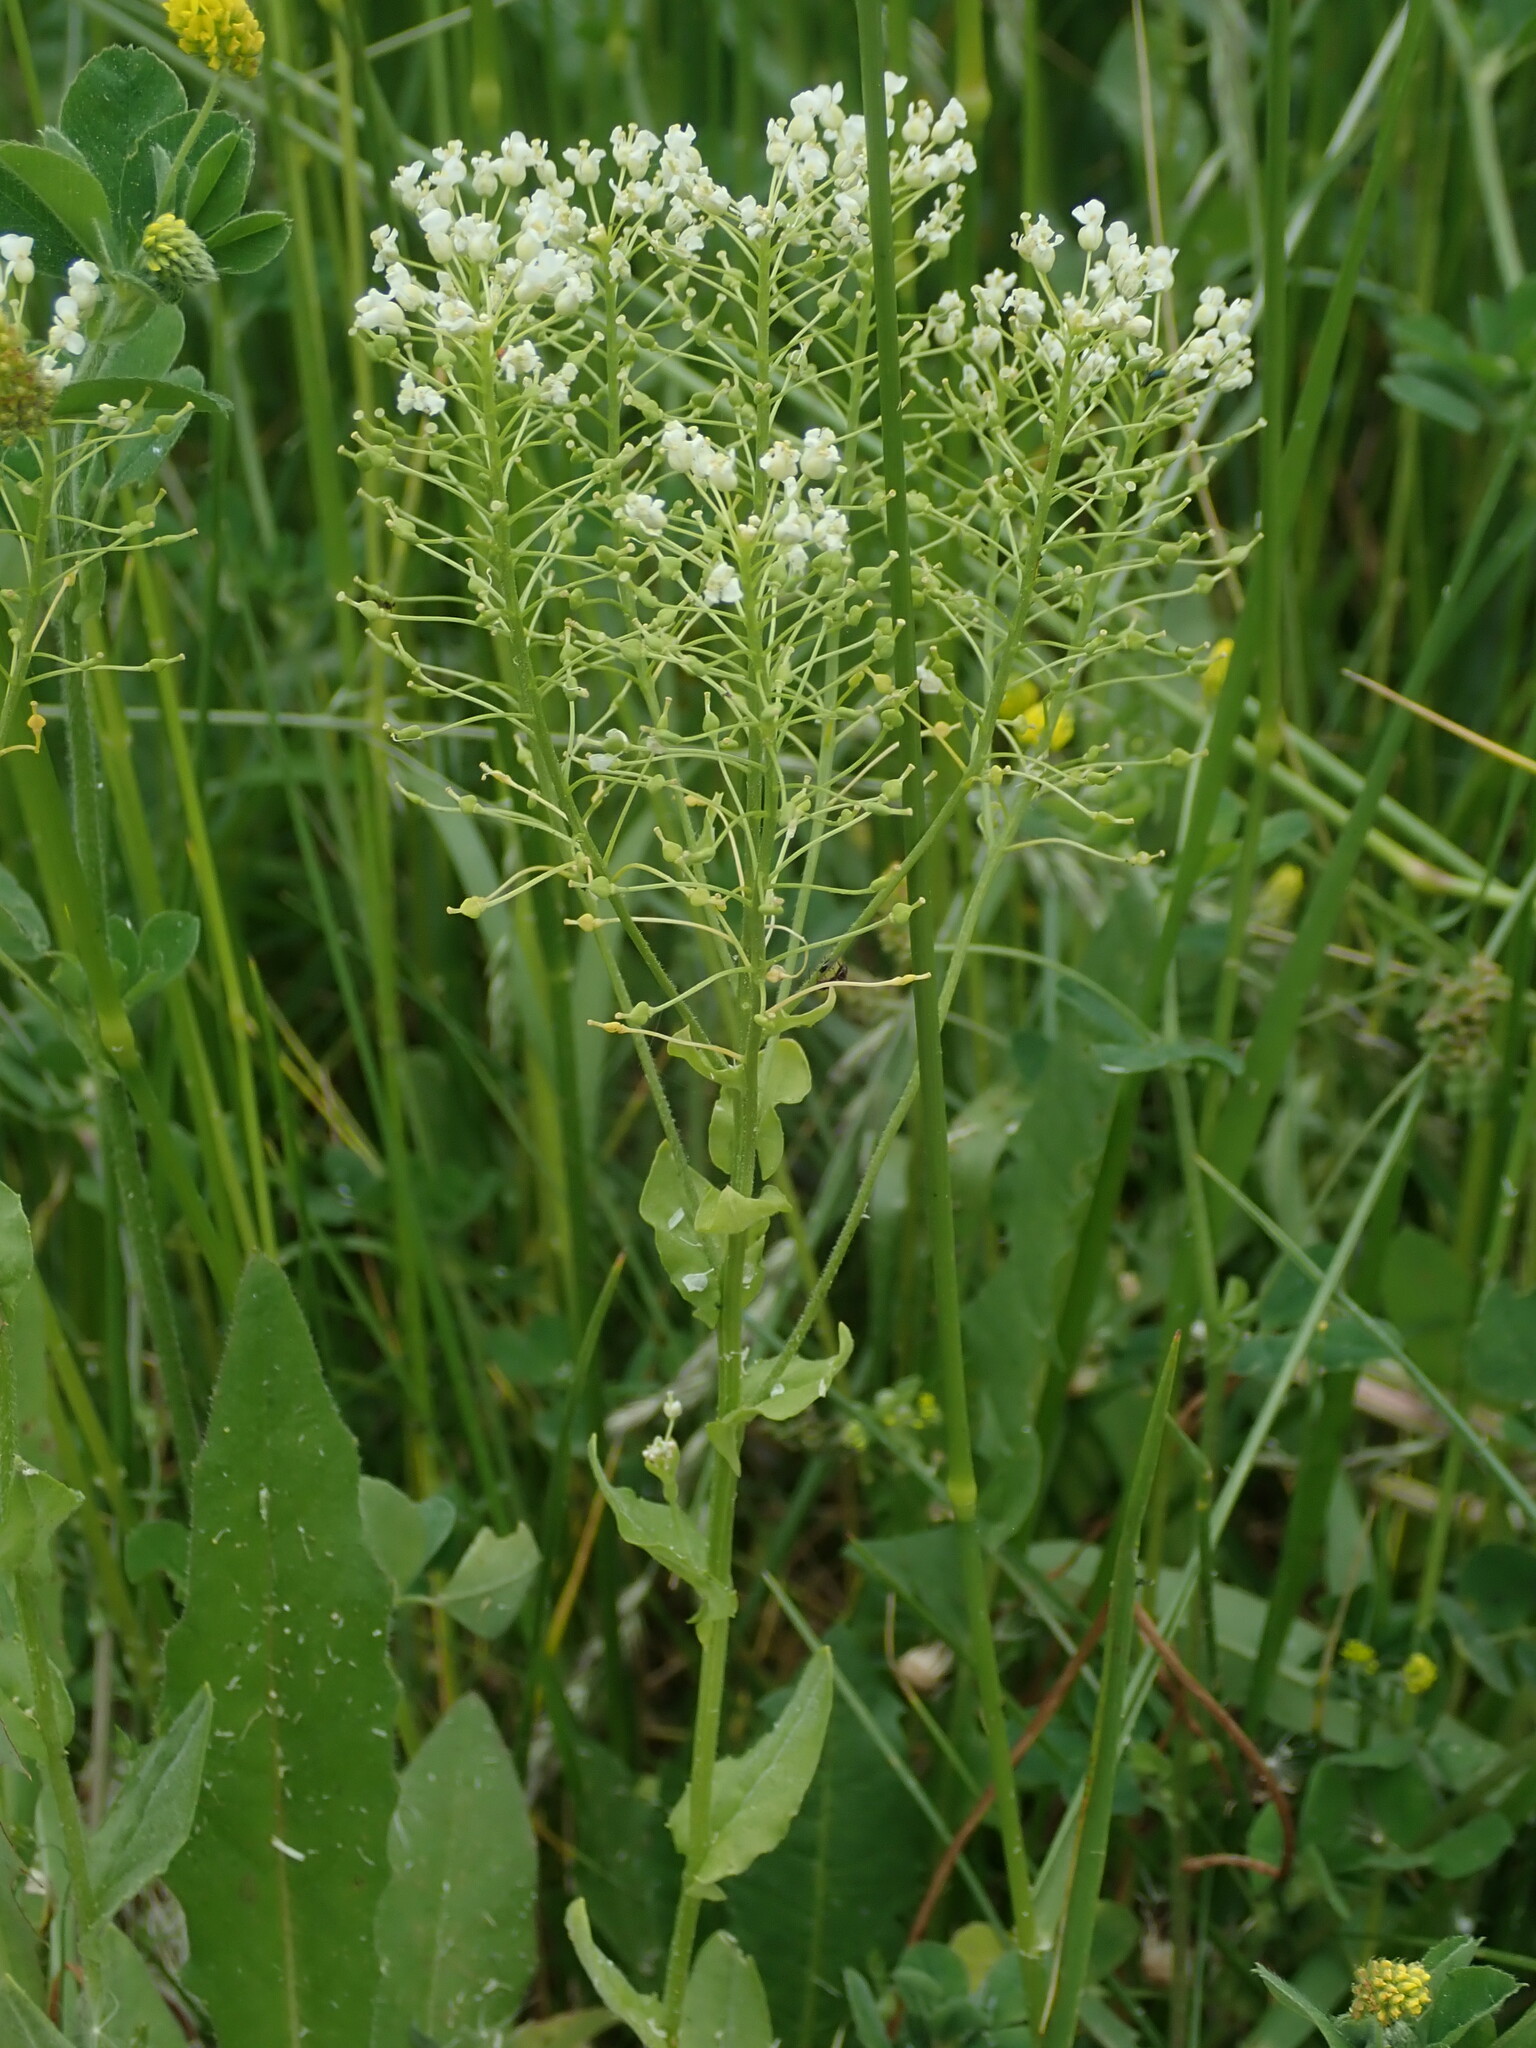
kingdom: Plantae
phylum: Tracheophyta
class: Magnoliopsida
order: Brassicales
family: Brassicaceae
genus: Lepidium
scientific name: Lepidium draba
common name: Hoary cress
